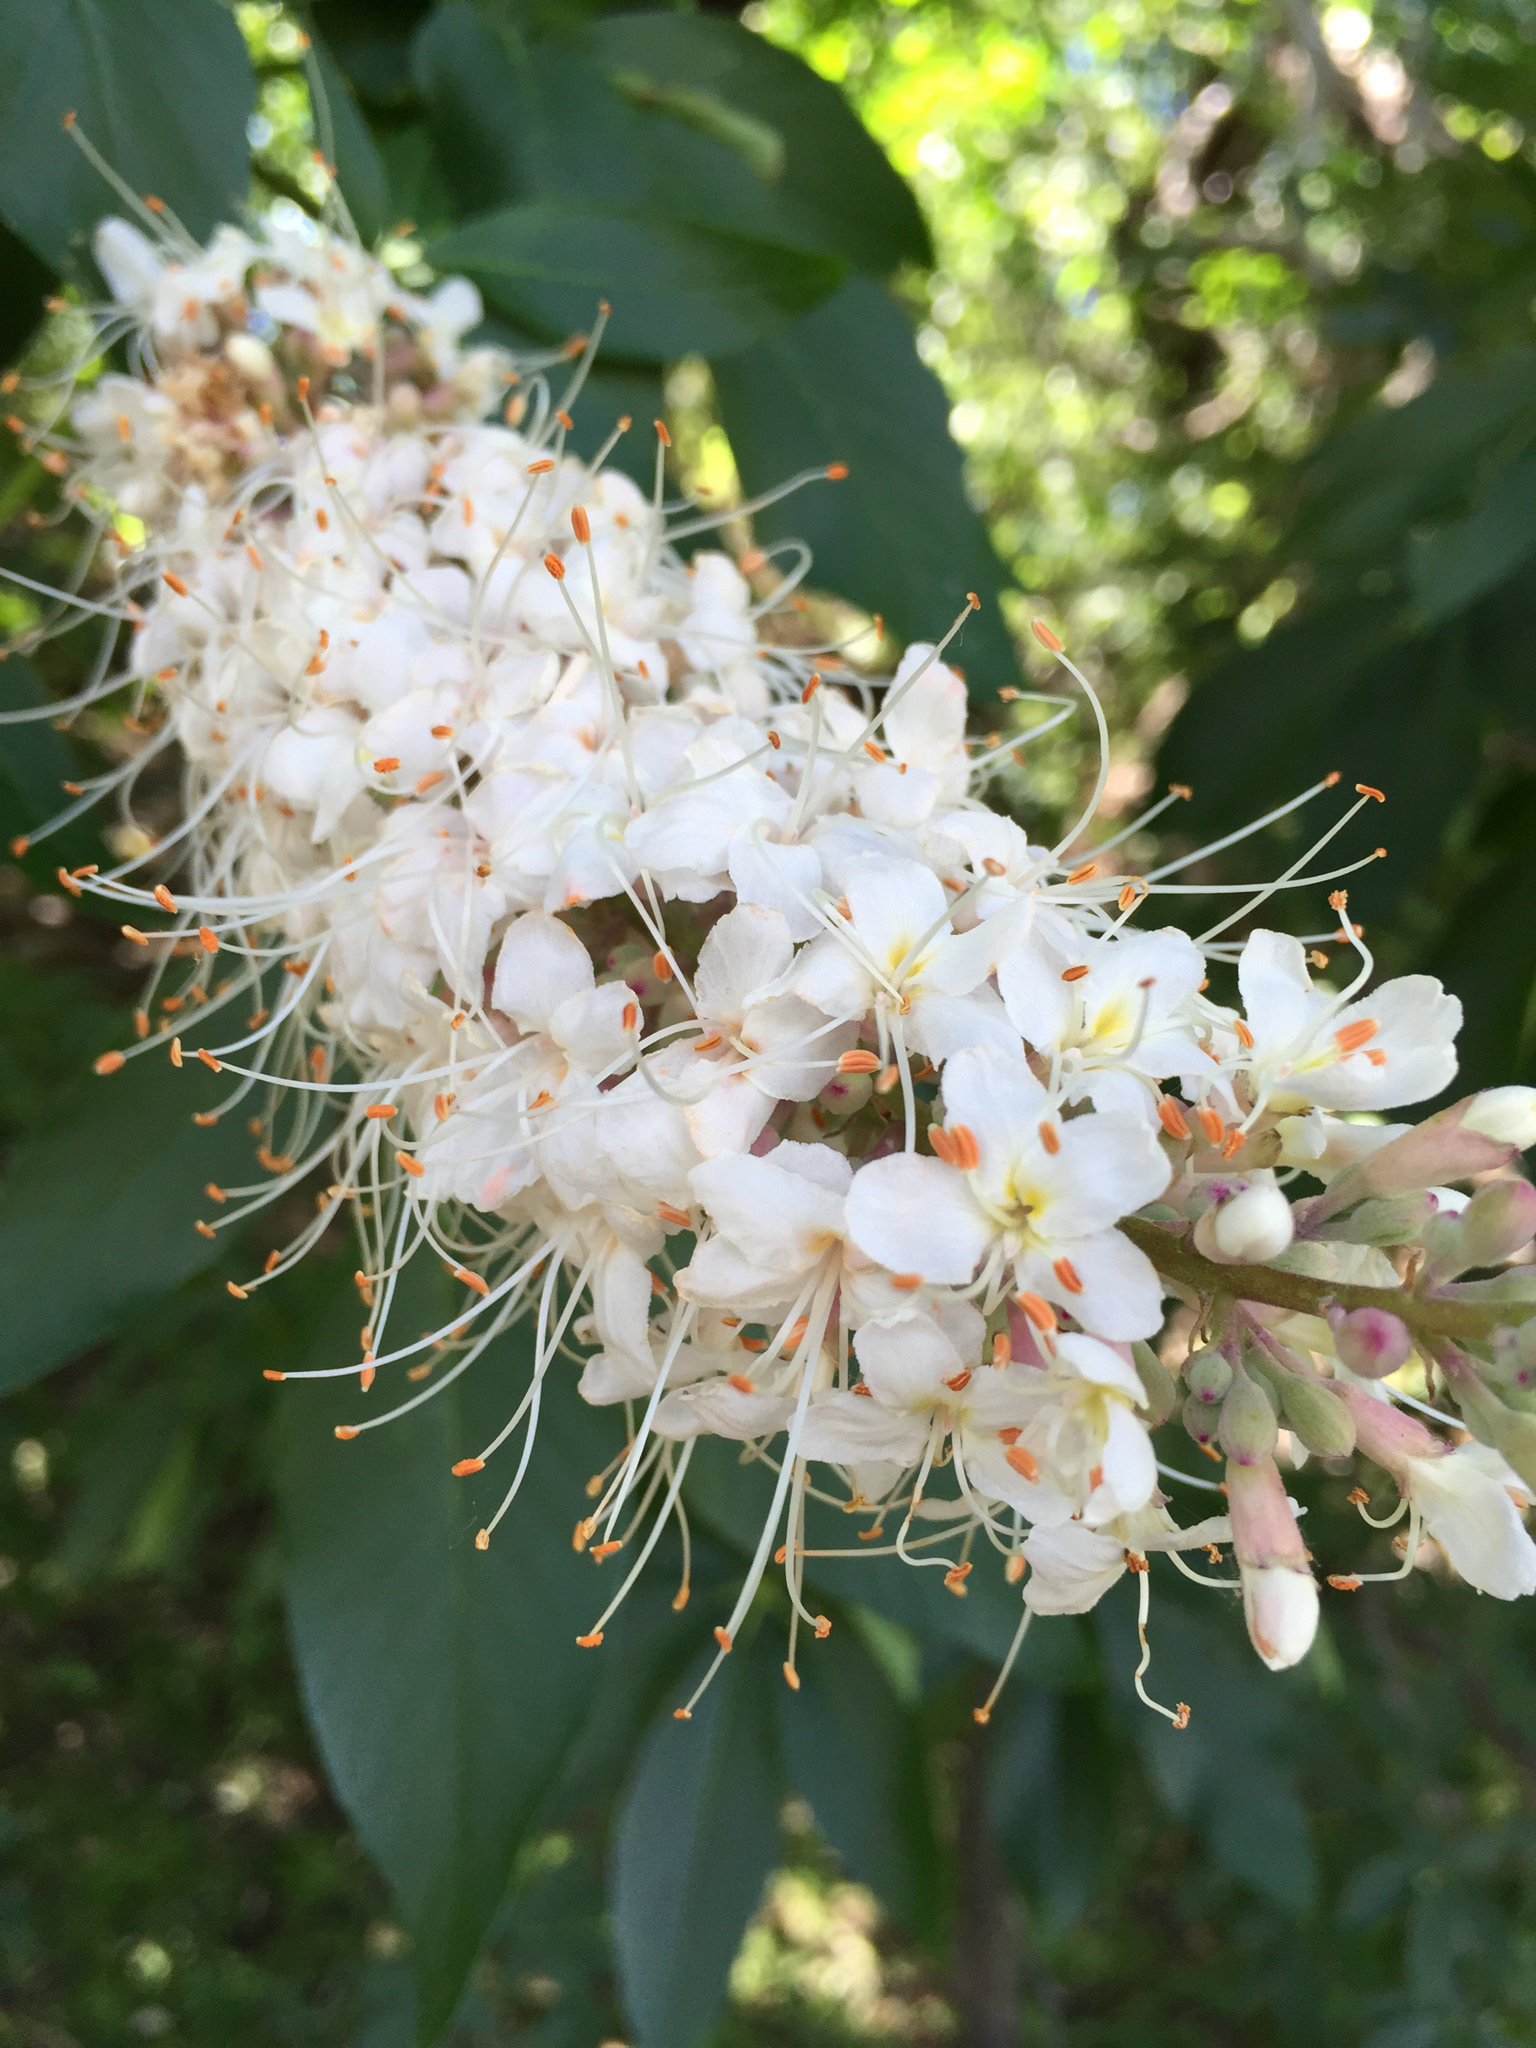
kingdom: Plantae
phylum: Tracheophyta
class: Magnoliopsida
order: Sapindales
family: Sapindaceae
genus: Aesculus
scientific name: Aesculus californica
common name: California buckeye
